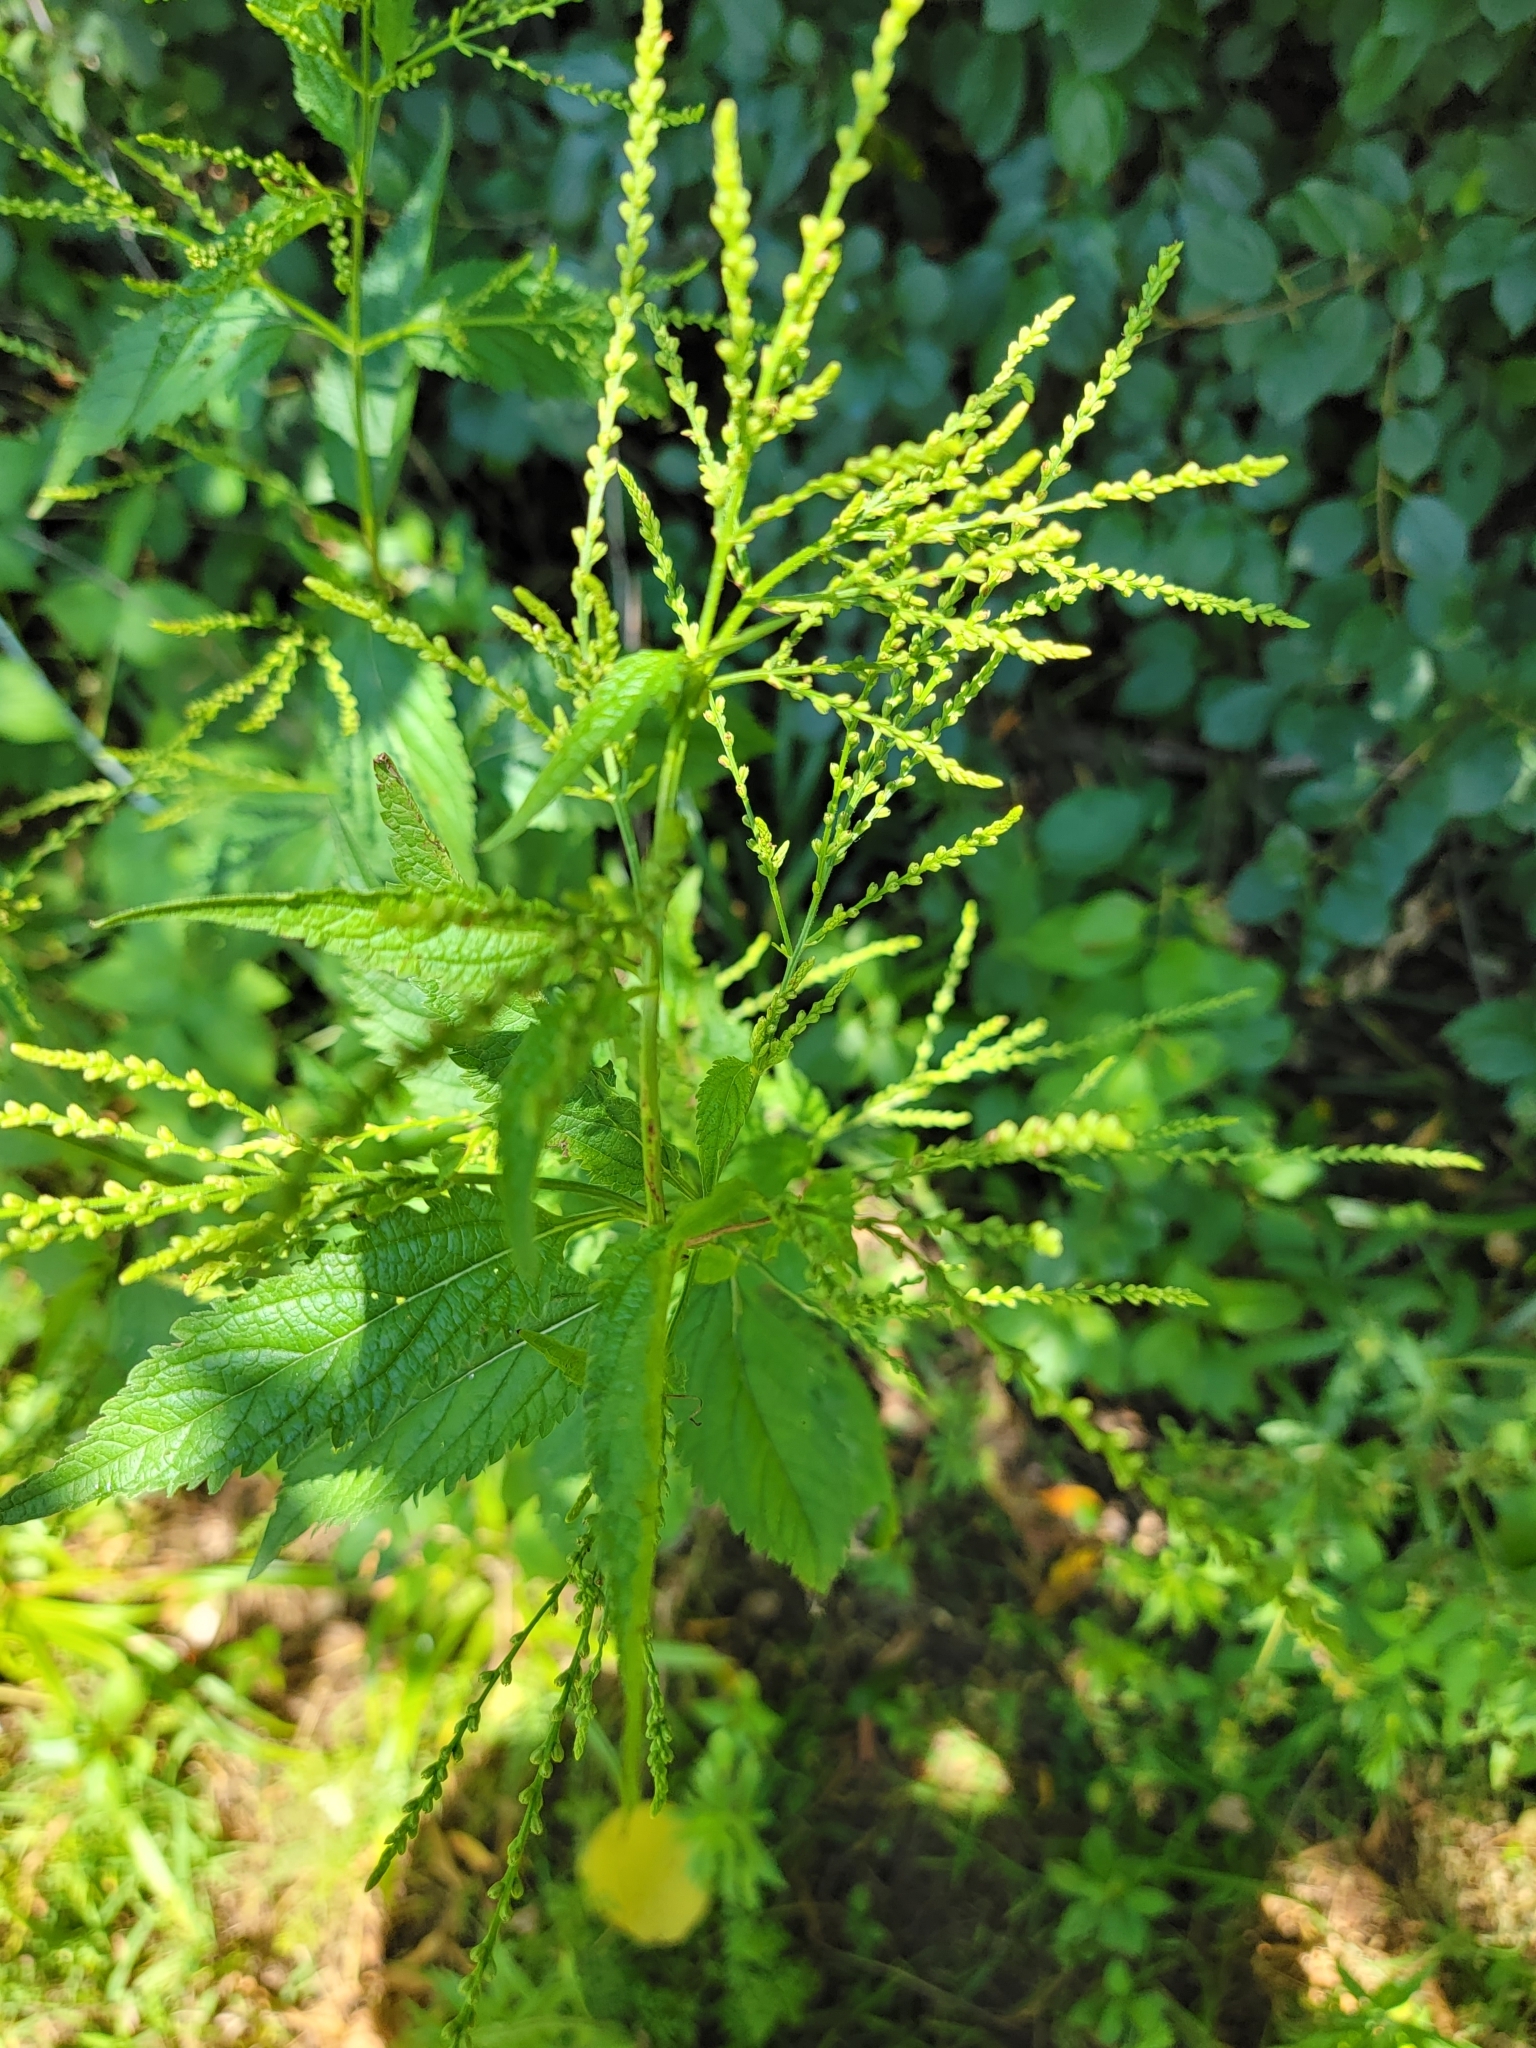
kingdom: Plantae
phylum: Tracheophyta
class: Magnoliopsida
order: Lamiales
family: Verbenaceae
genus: Verbena
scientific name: Verbena urticifolia
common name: Nettle-leaved vervain
